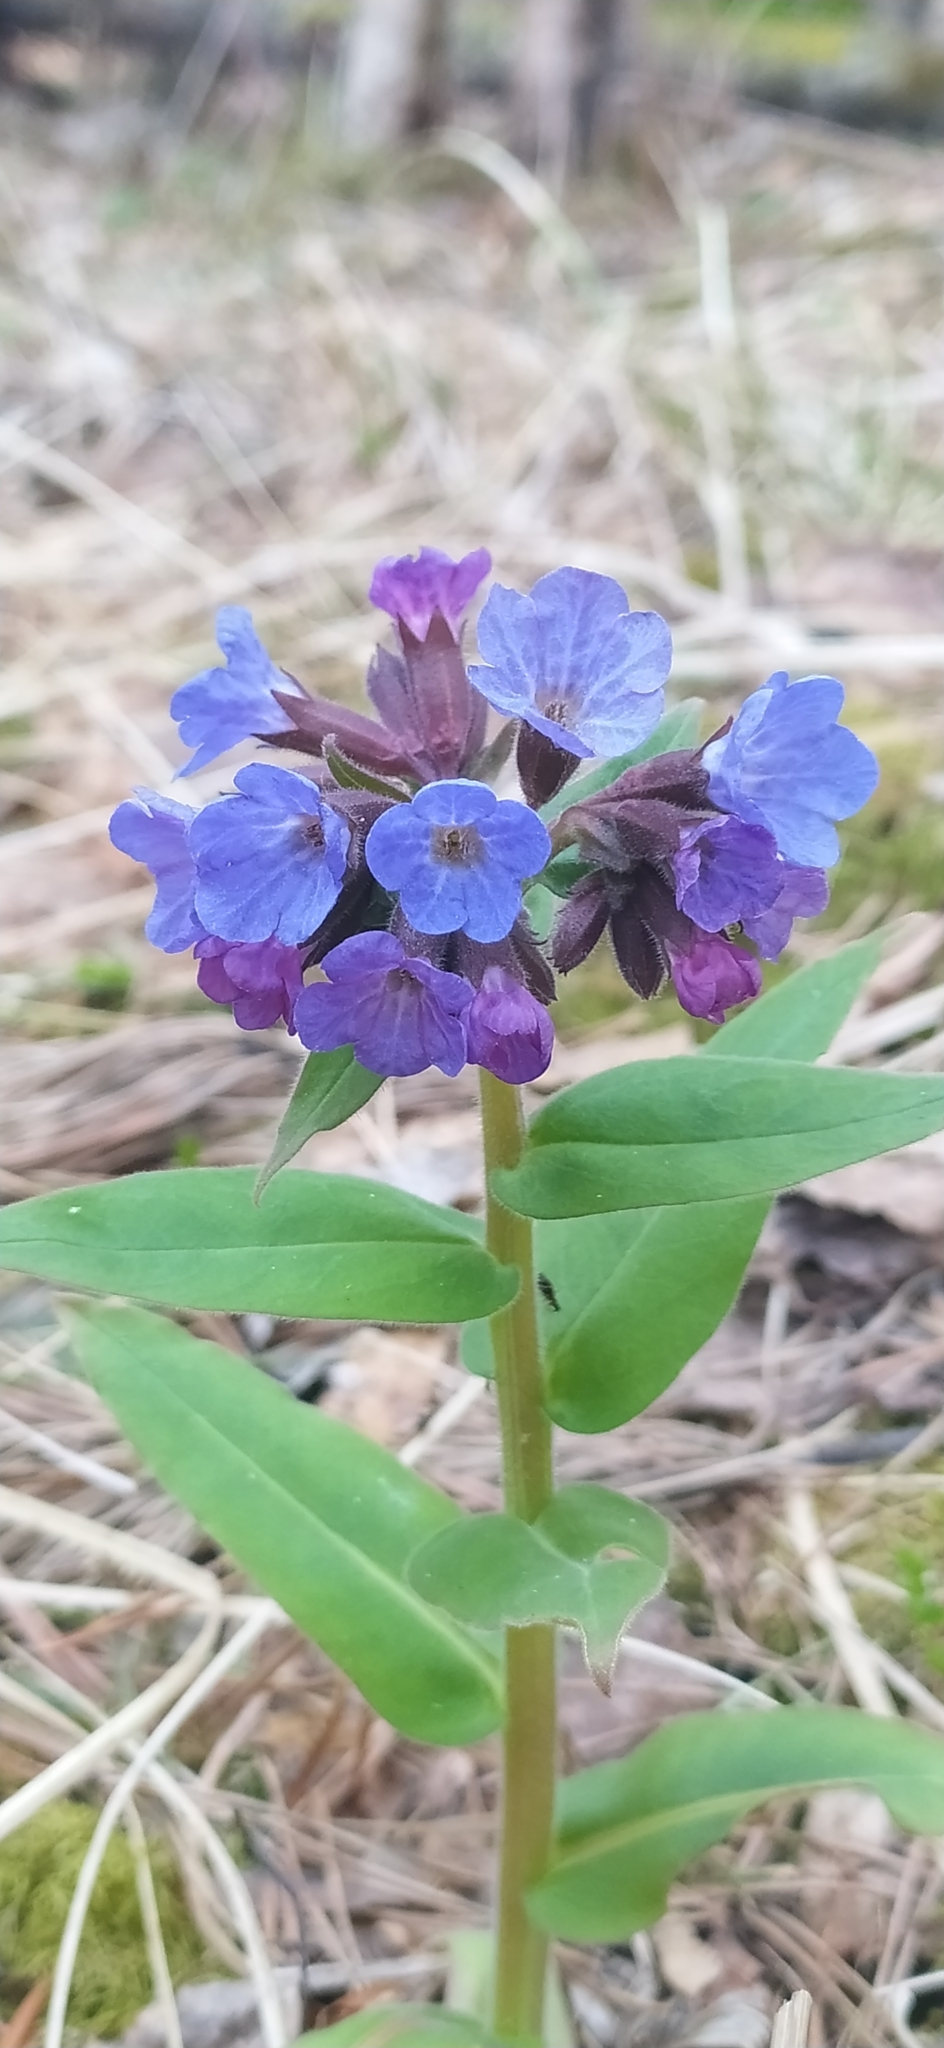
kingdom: Plantae
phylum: Tracheophyta
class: Magnoliopsida
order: Boraginales
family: Boraginaceae
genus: Pulmonaria
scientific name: Pulmonaria mollis
